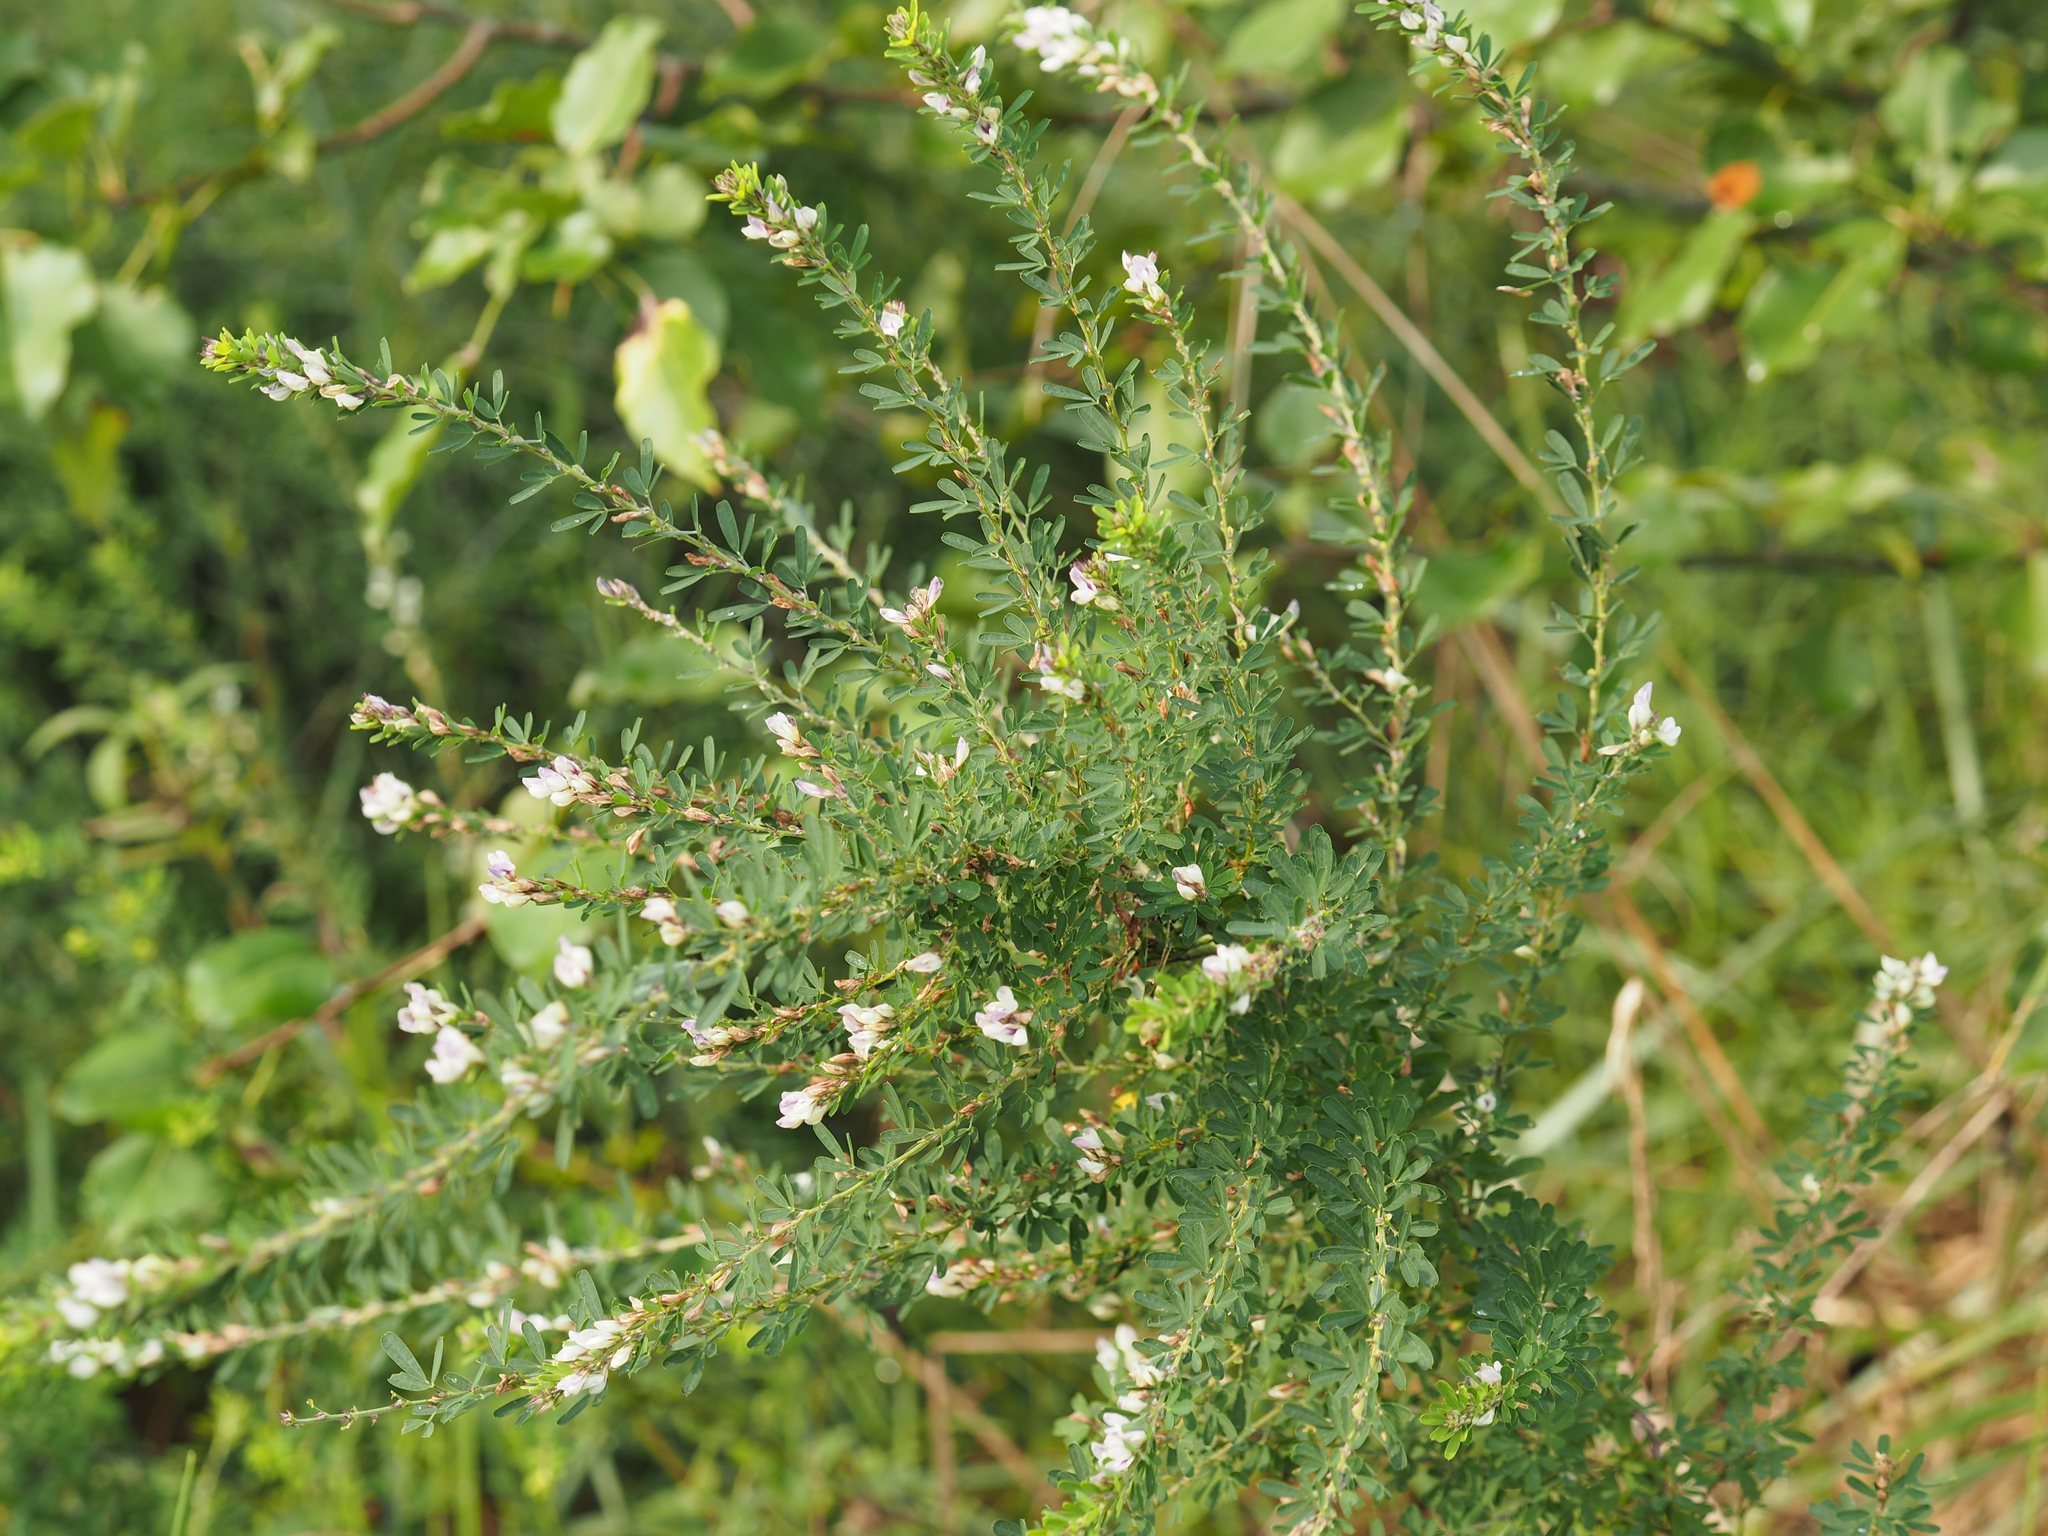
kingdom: Plantae
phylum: Tracheophyta
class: Magnoliopsida
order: Fabales
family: Fabaceae
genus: Lespedeza
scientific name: Lespedeza cuneata
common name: Chinese bush-clover
